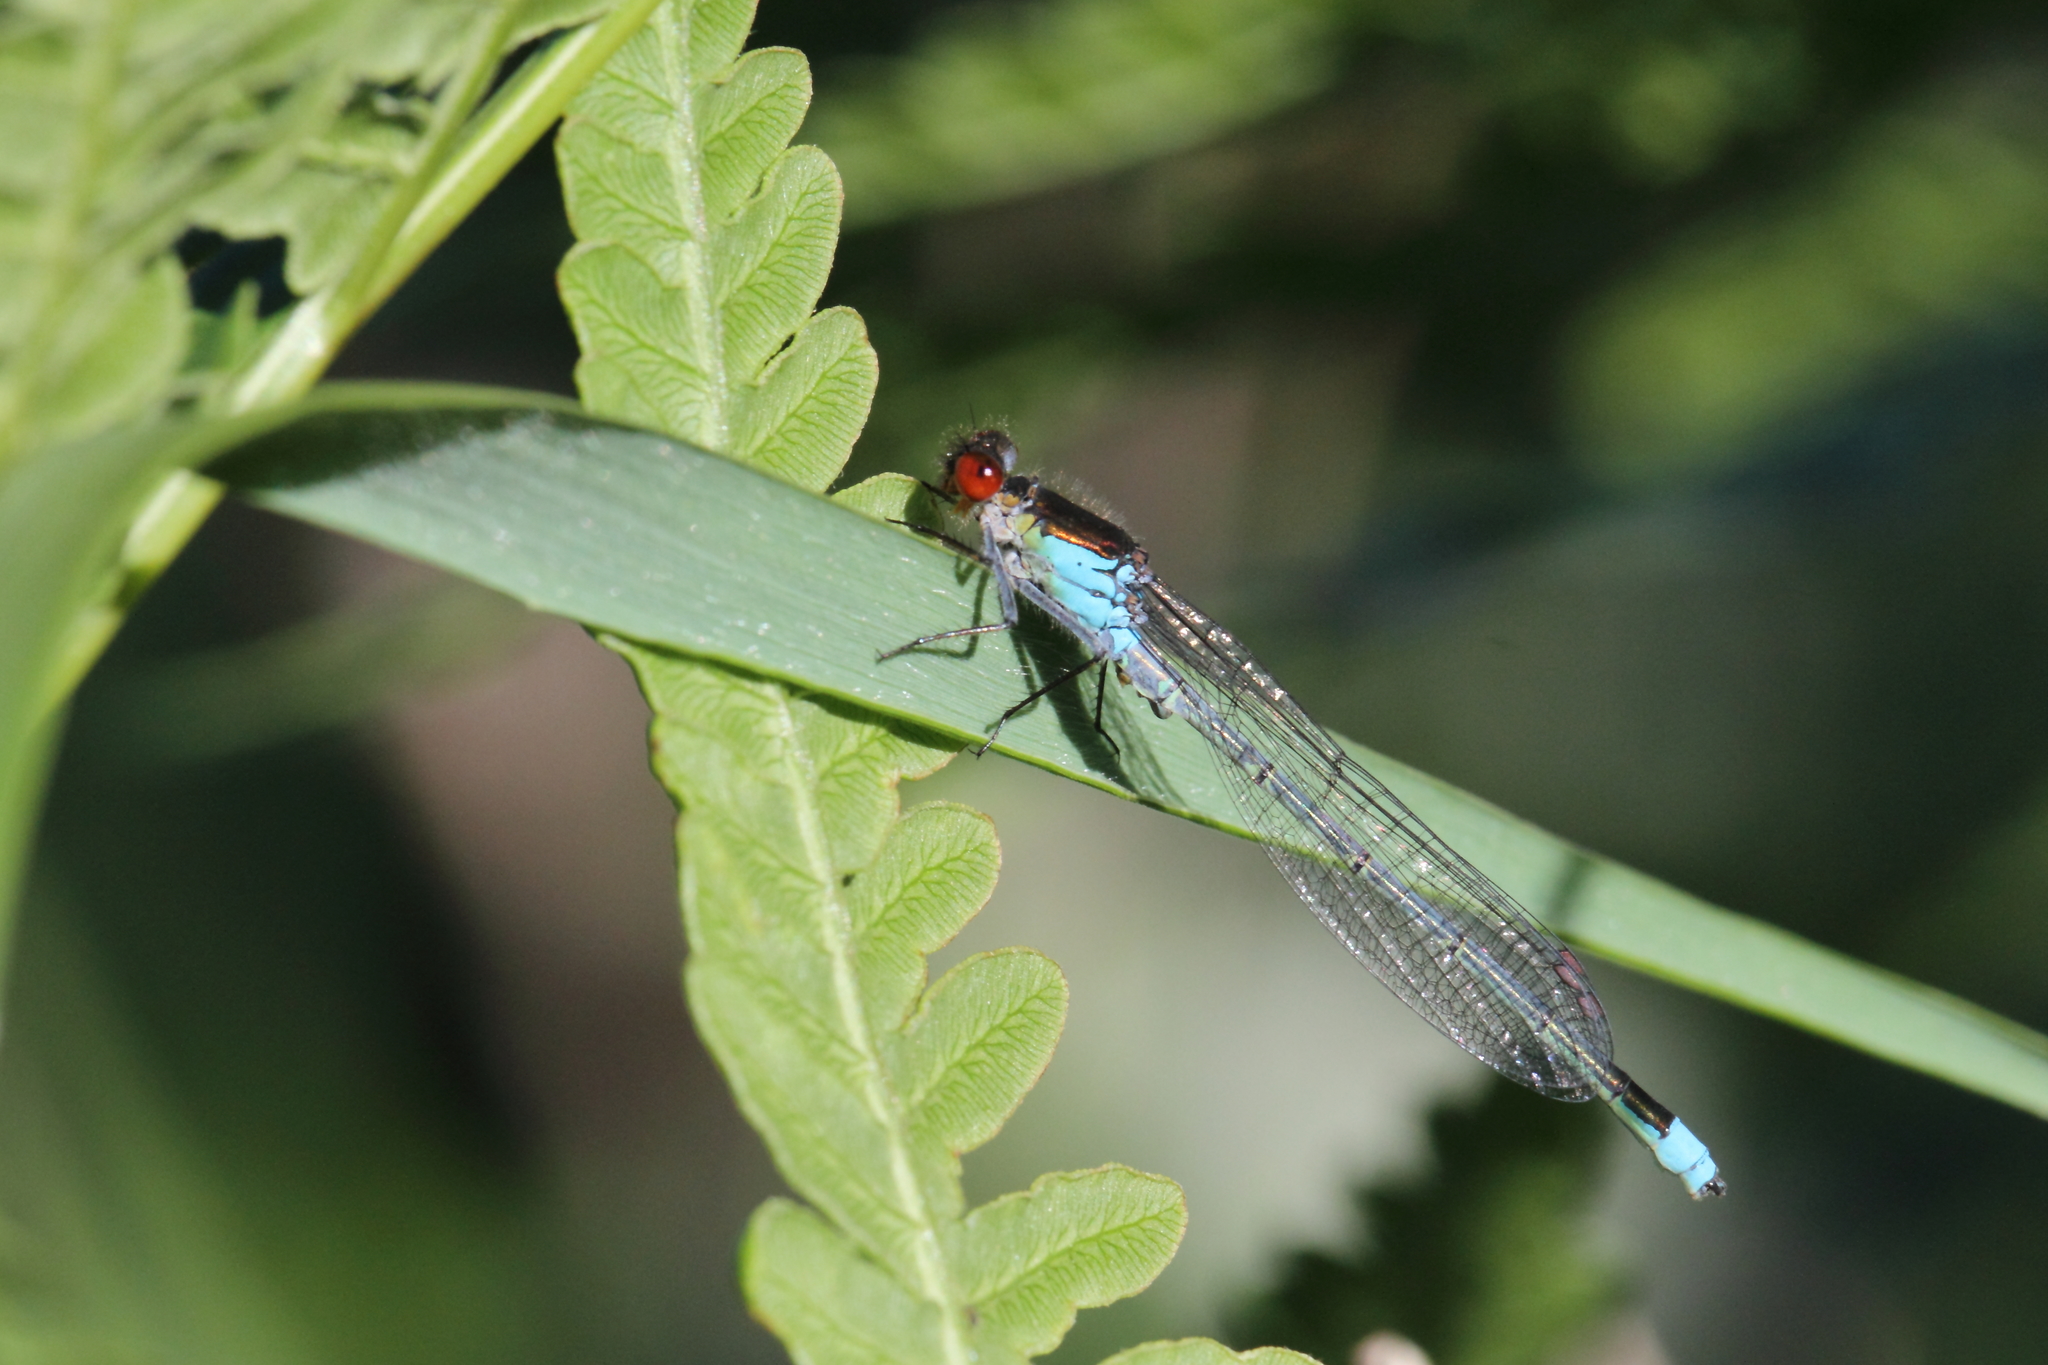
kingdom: Animalia
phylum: Arthropoda
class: Insecta
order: Odonata
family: Coenagrionidae
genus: Erythromma
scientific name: Erythromma najas
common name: Red-eyed damselfly
